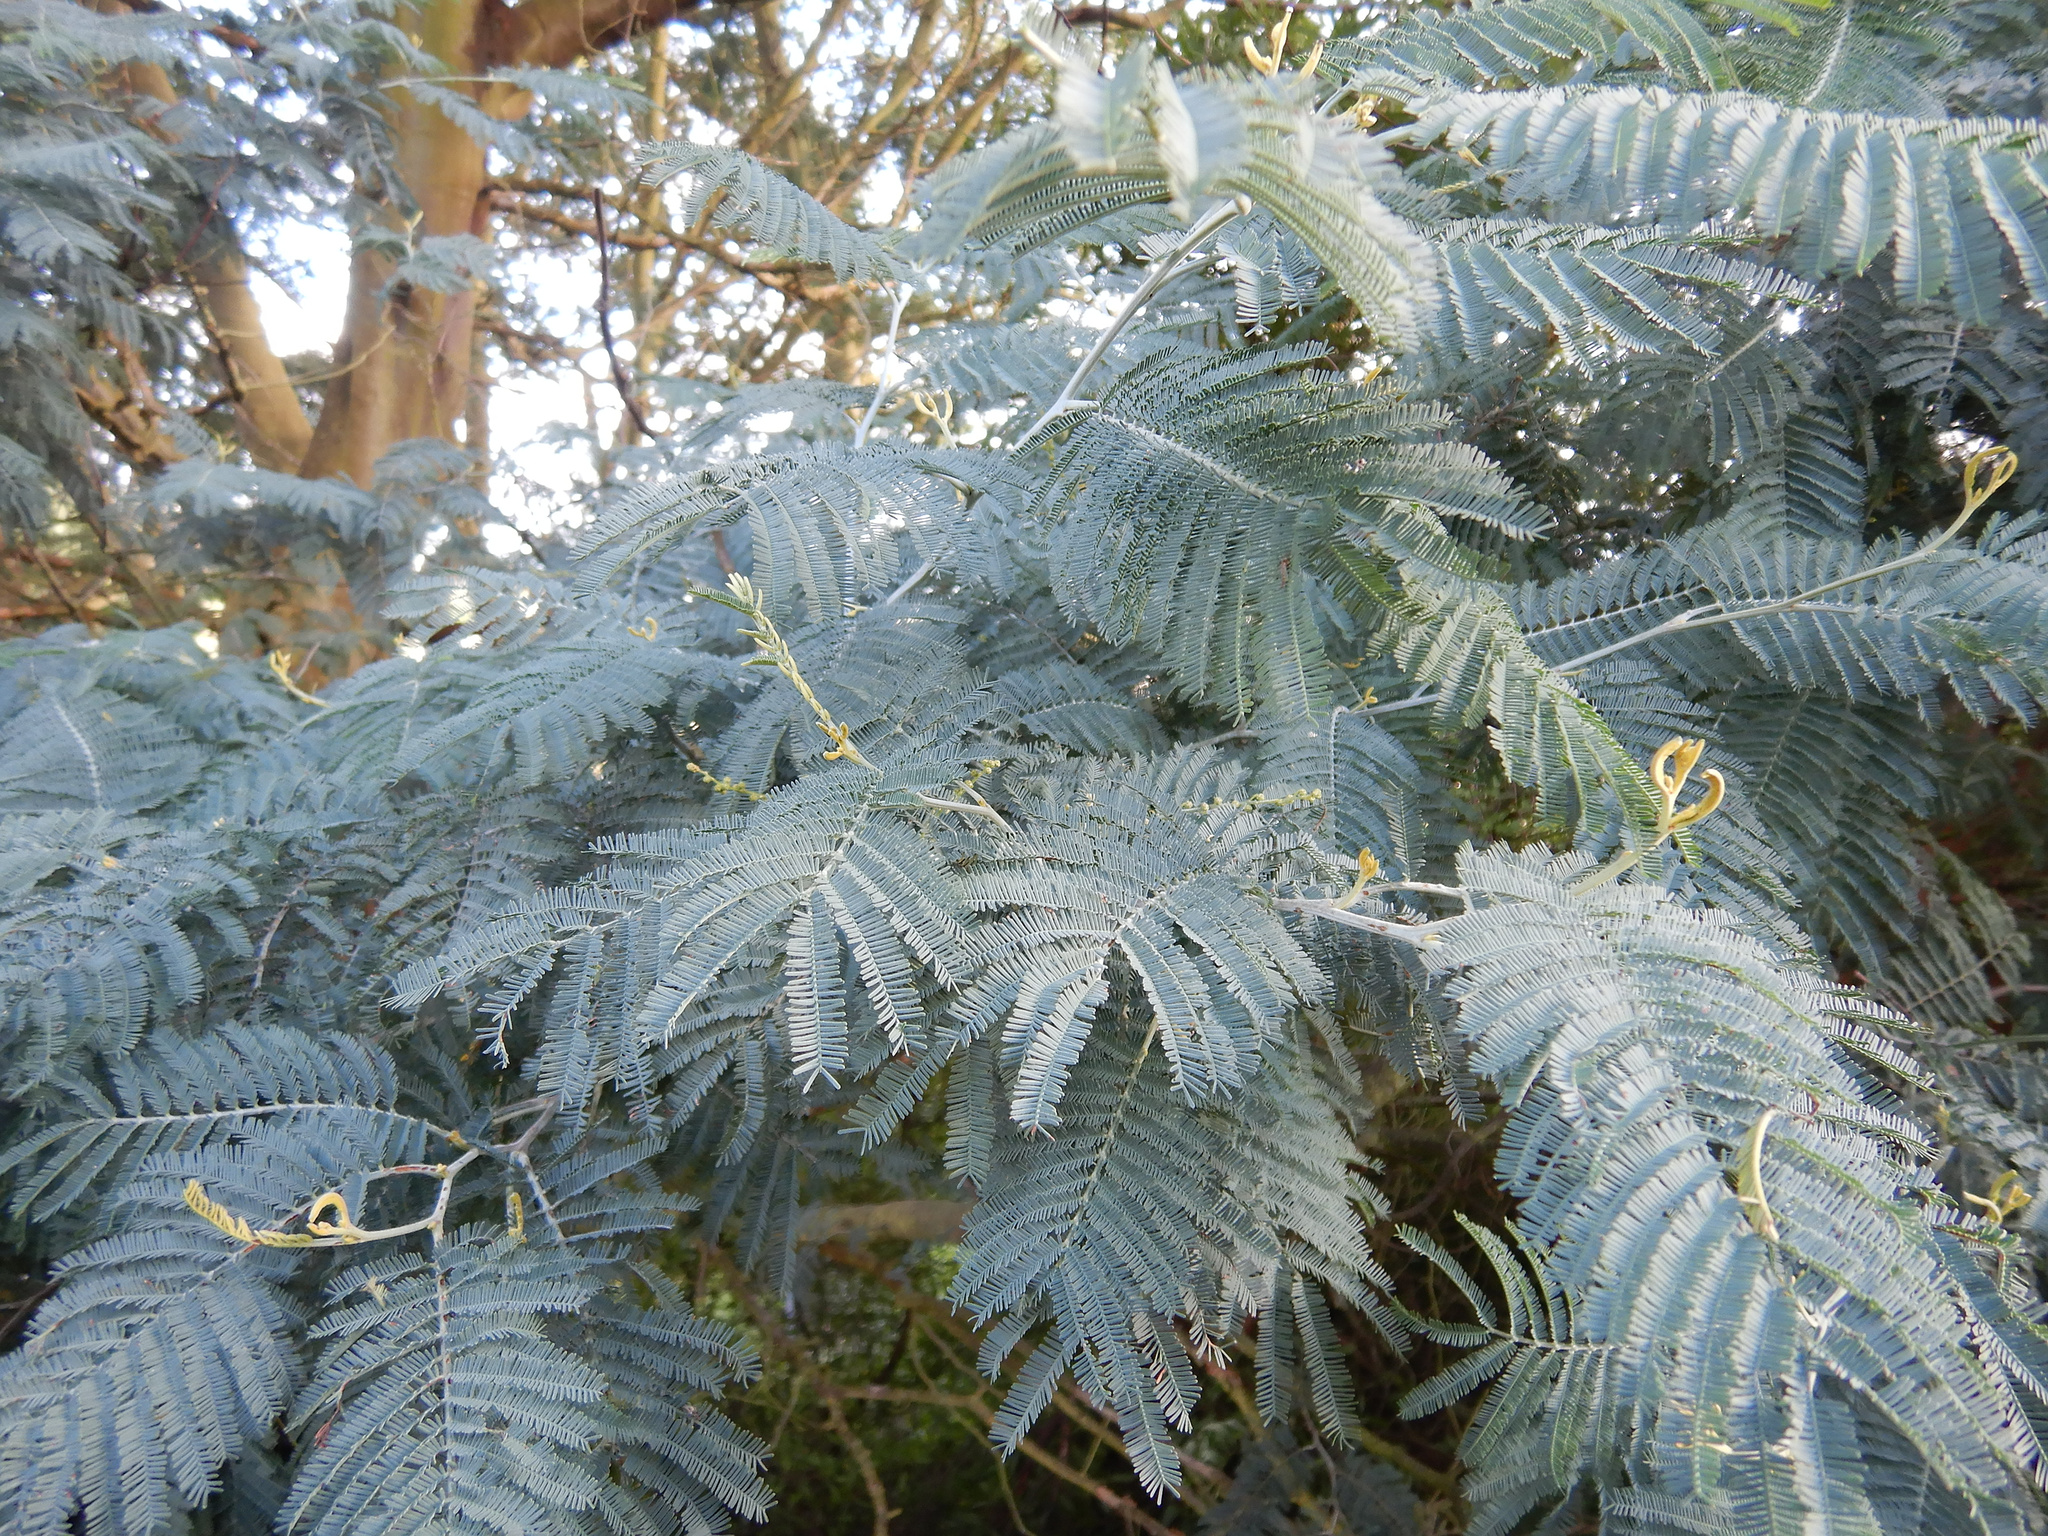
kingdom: Plantae
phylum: Tracheophyta
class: Magnoliopsida
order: Fabales
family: Fabaceae
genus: Acacia
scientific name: Acacia dealbata
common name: Silver wattle
